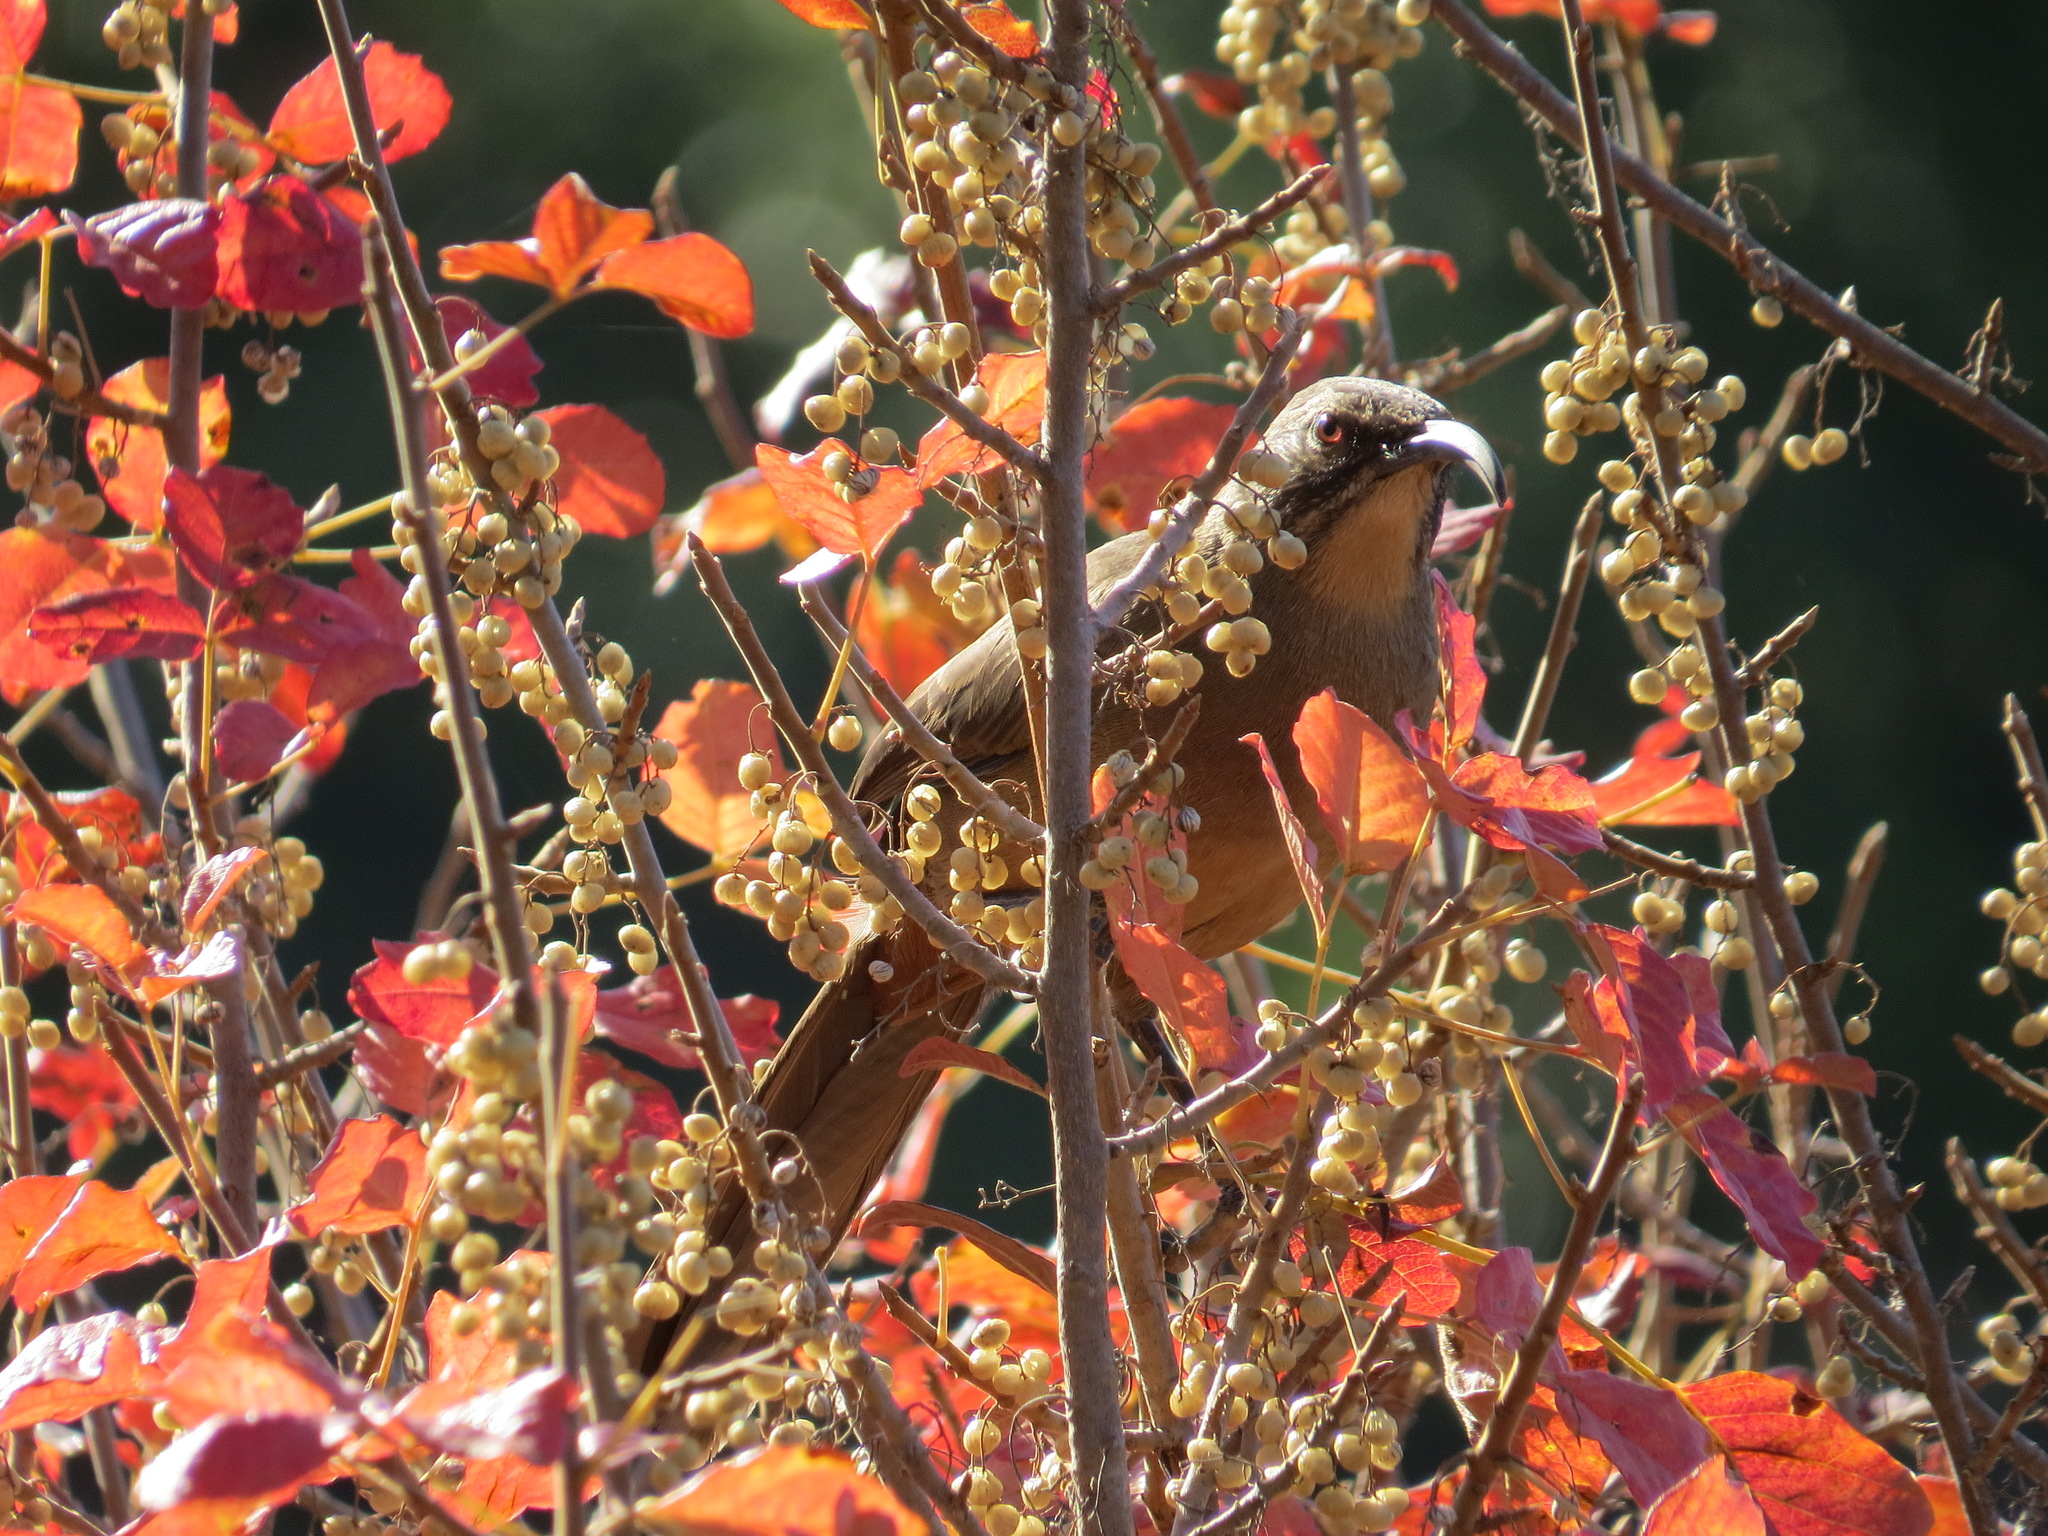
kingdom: Animalia
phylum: Chordata
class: Aves
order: Passeriformes
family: Mimidae
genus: Toxostoma
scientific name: Toxostoma redivivum
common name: California thrasher
